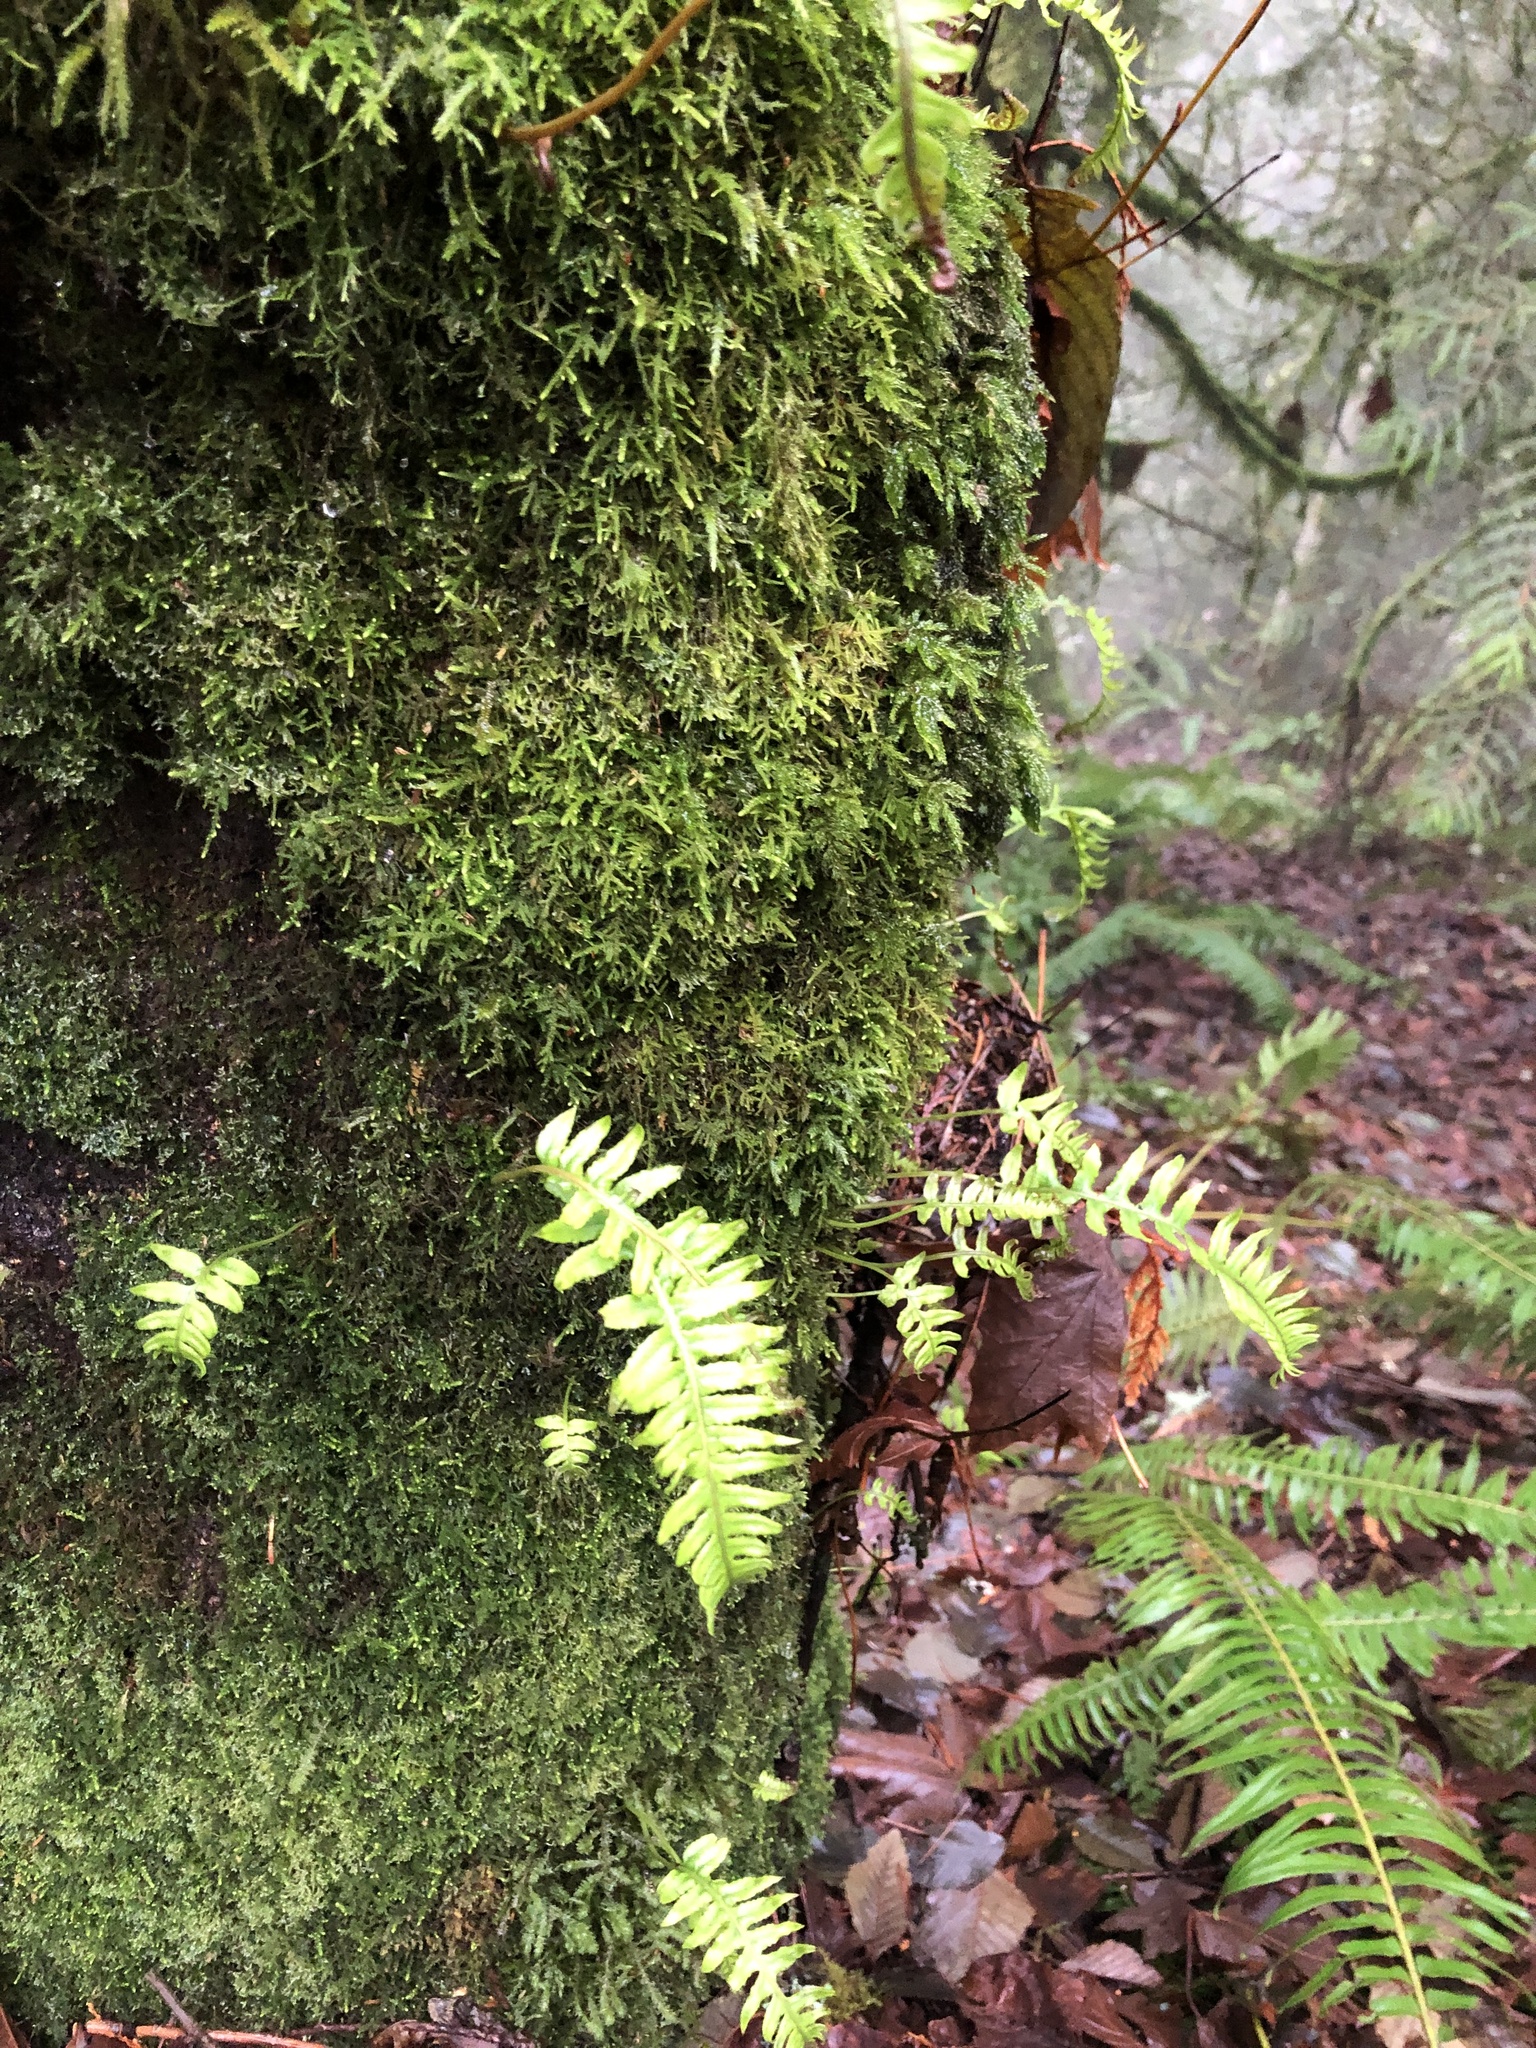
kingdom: Plantae
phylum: Tracheophyta
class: Polypodiopsida
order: Polypodiales
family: Polypodiaceae
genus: Polypodium
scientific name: Polypodium glycyrrhiza
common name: Licorice fern
